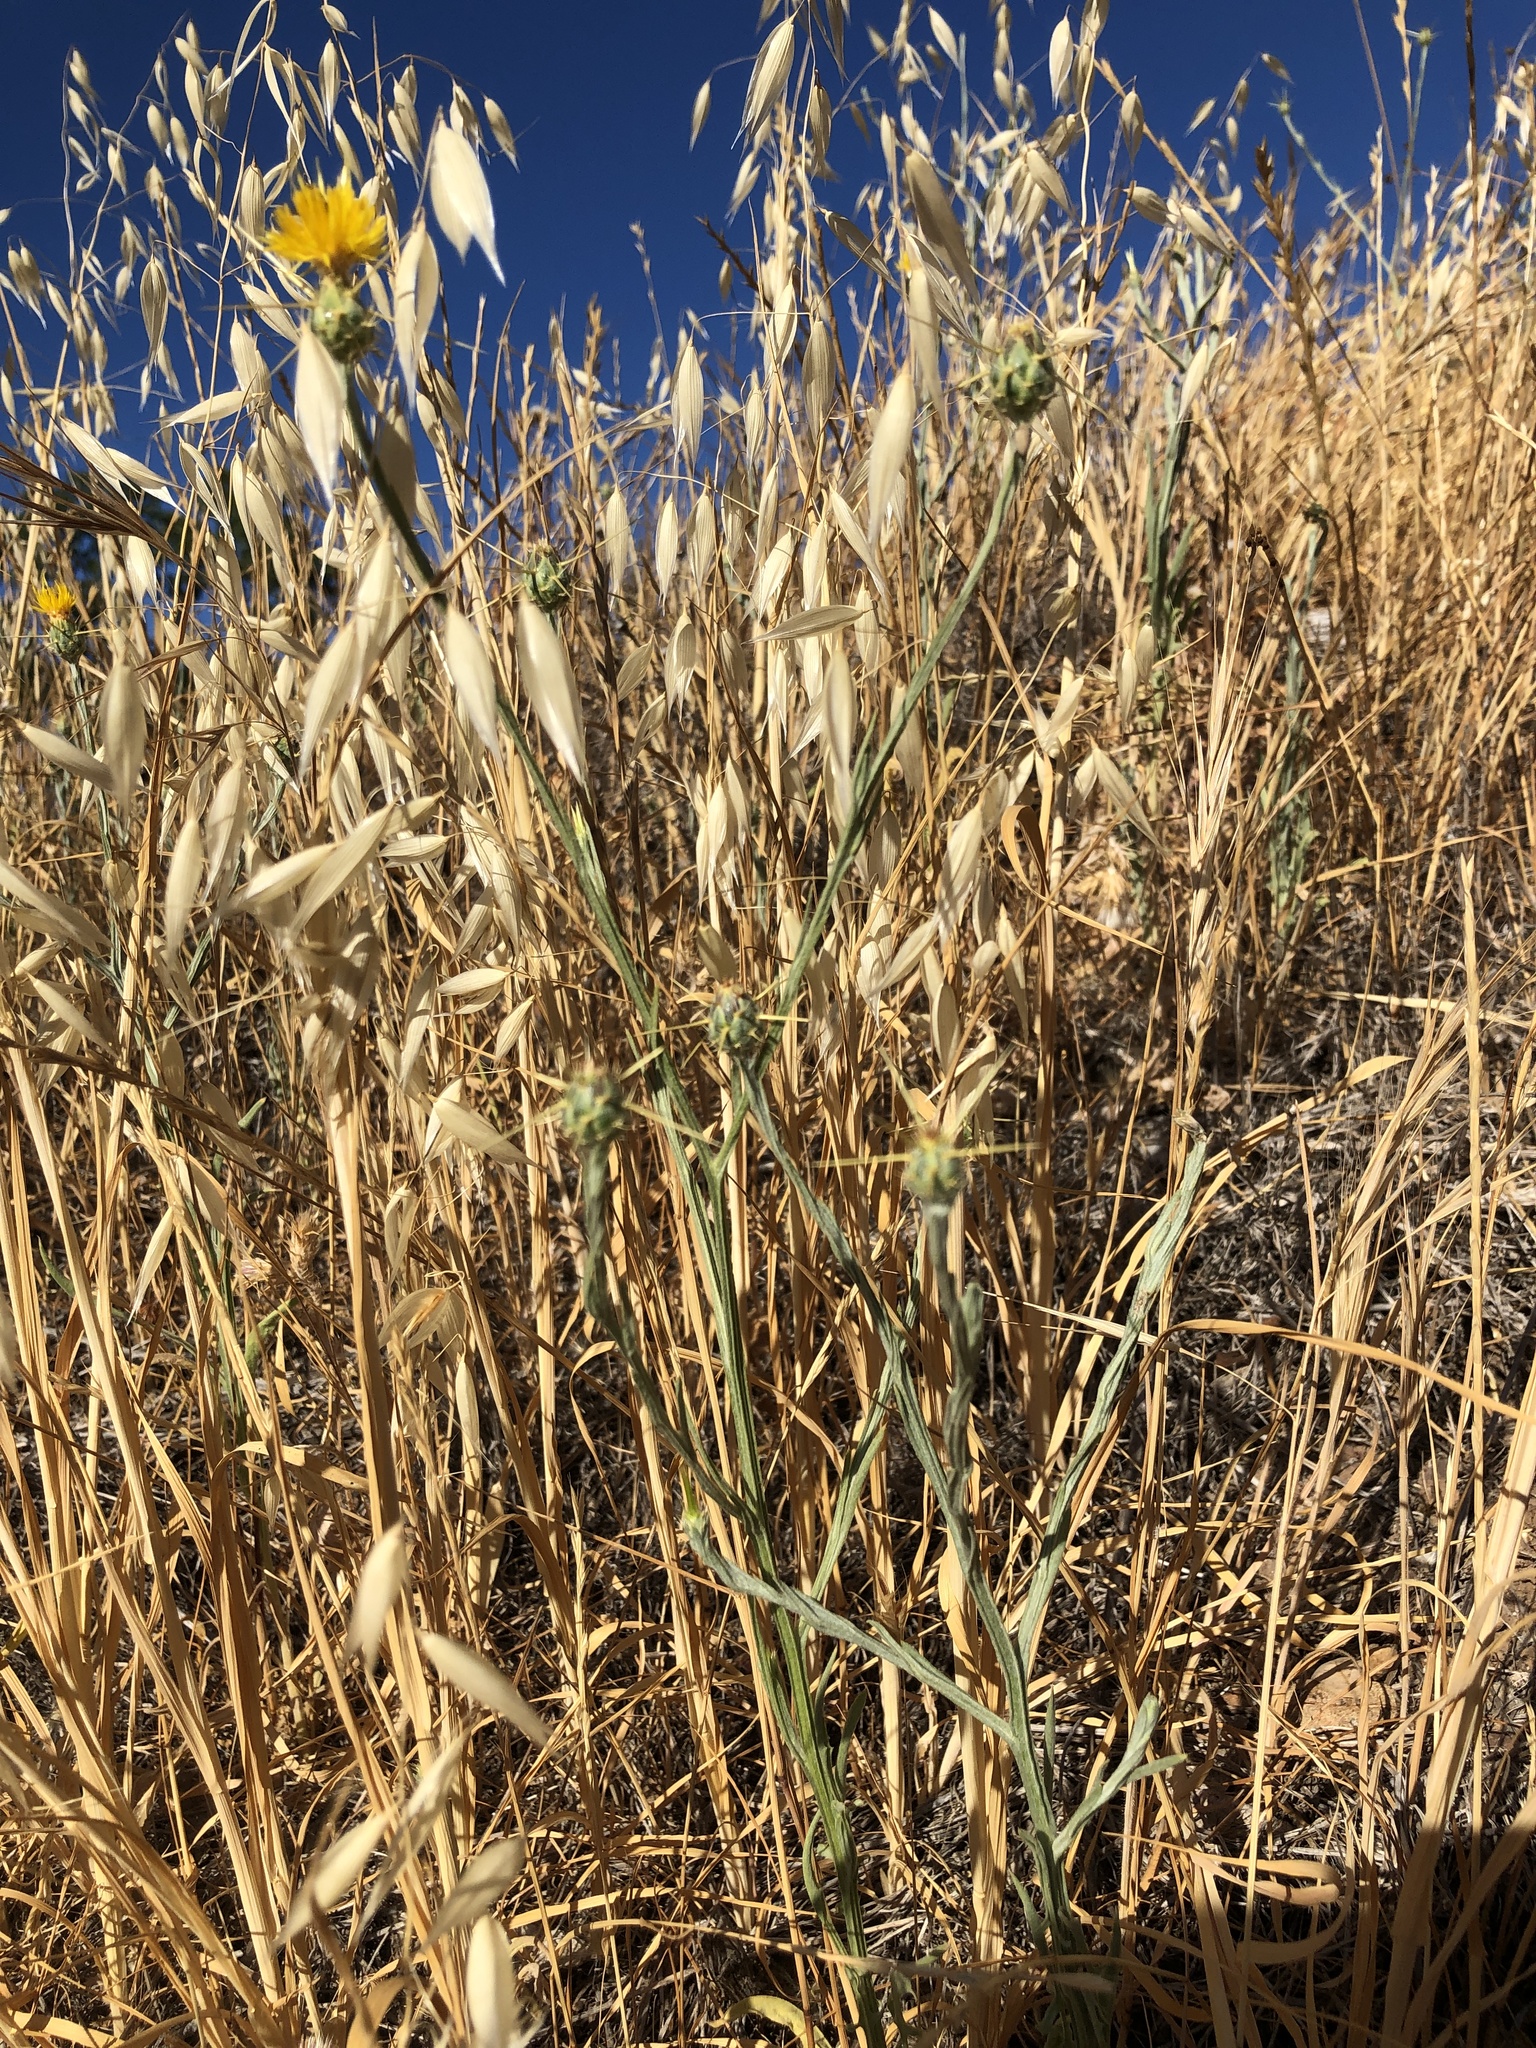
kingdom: Plantae
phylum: Tracheophyta
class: Magnoliopsida
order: Asterales
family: Asteraceae
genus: Centaurea
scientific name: Centaurea solstitialis
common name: Yellow star-thistle
